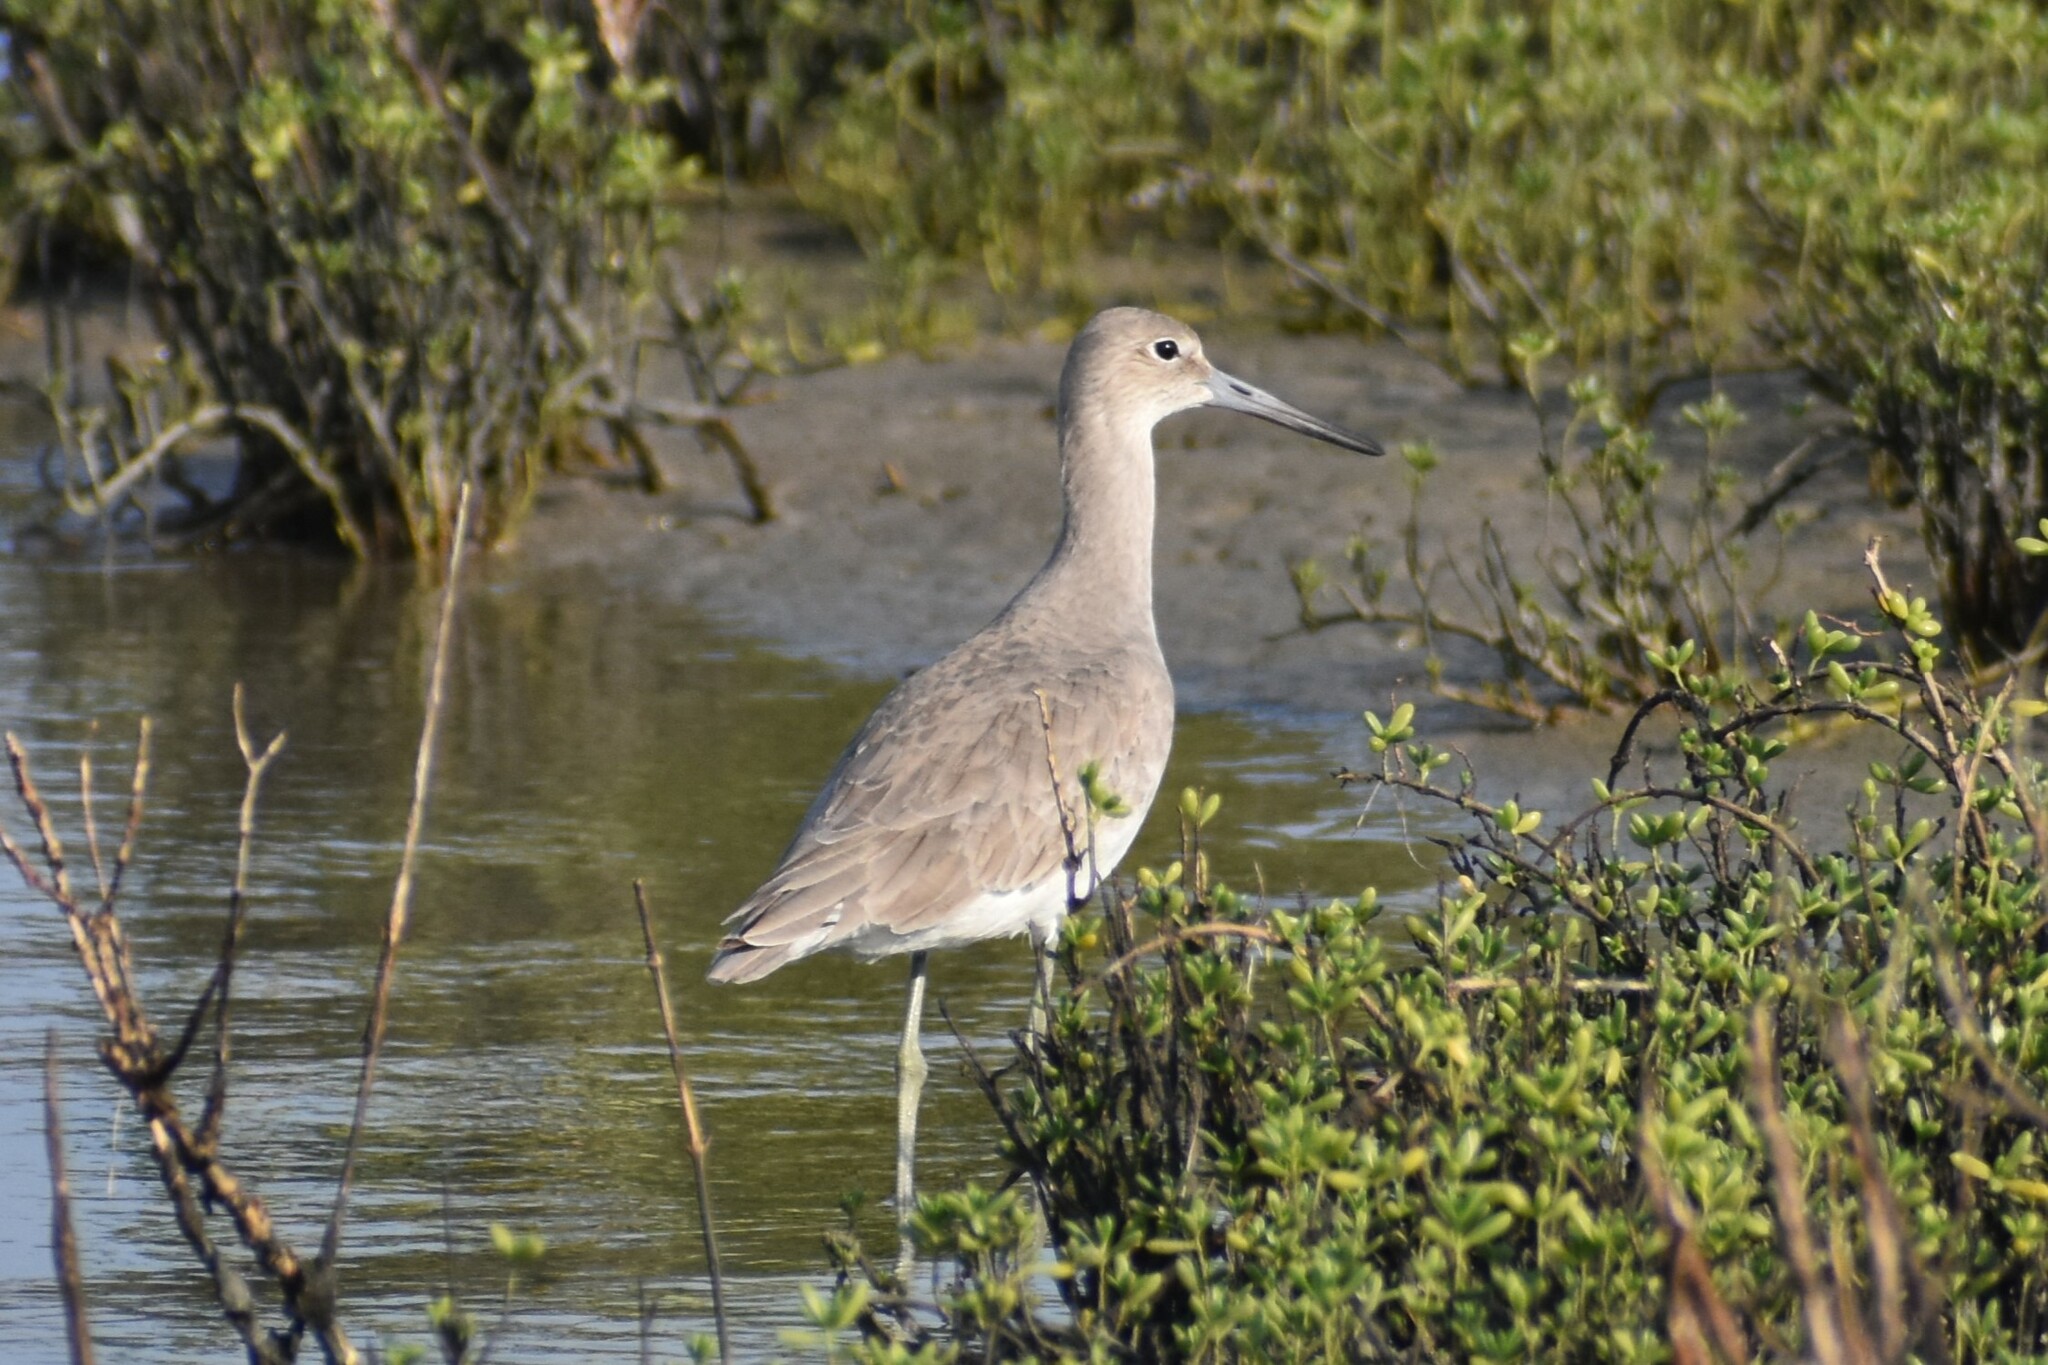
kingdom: Animalia
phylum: Chordata
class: Aves
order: Charadriiformes
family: Scolopacidae
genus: Tringa
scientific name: Tringa semipalmata
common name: Willet
